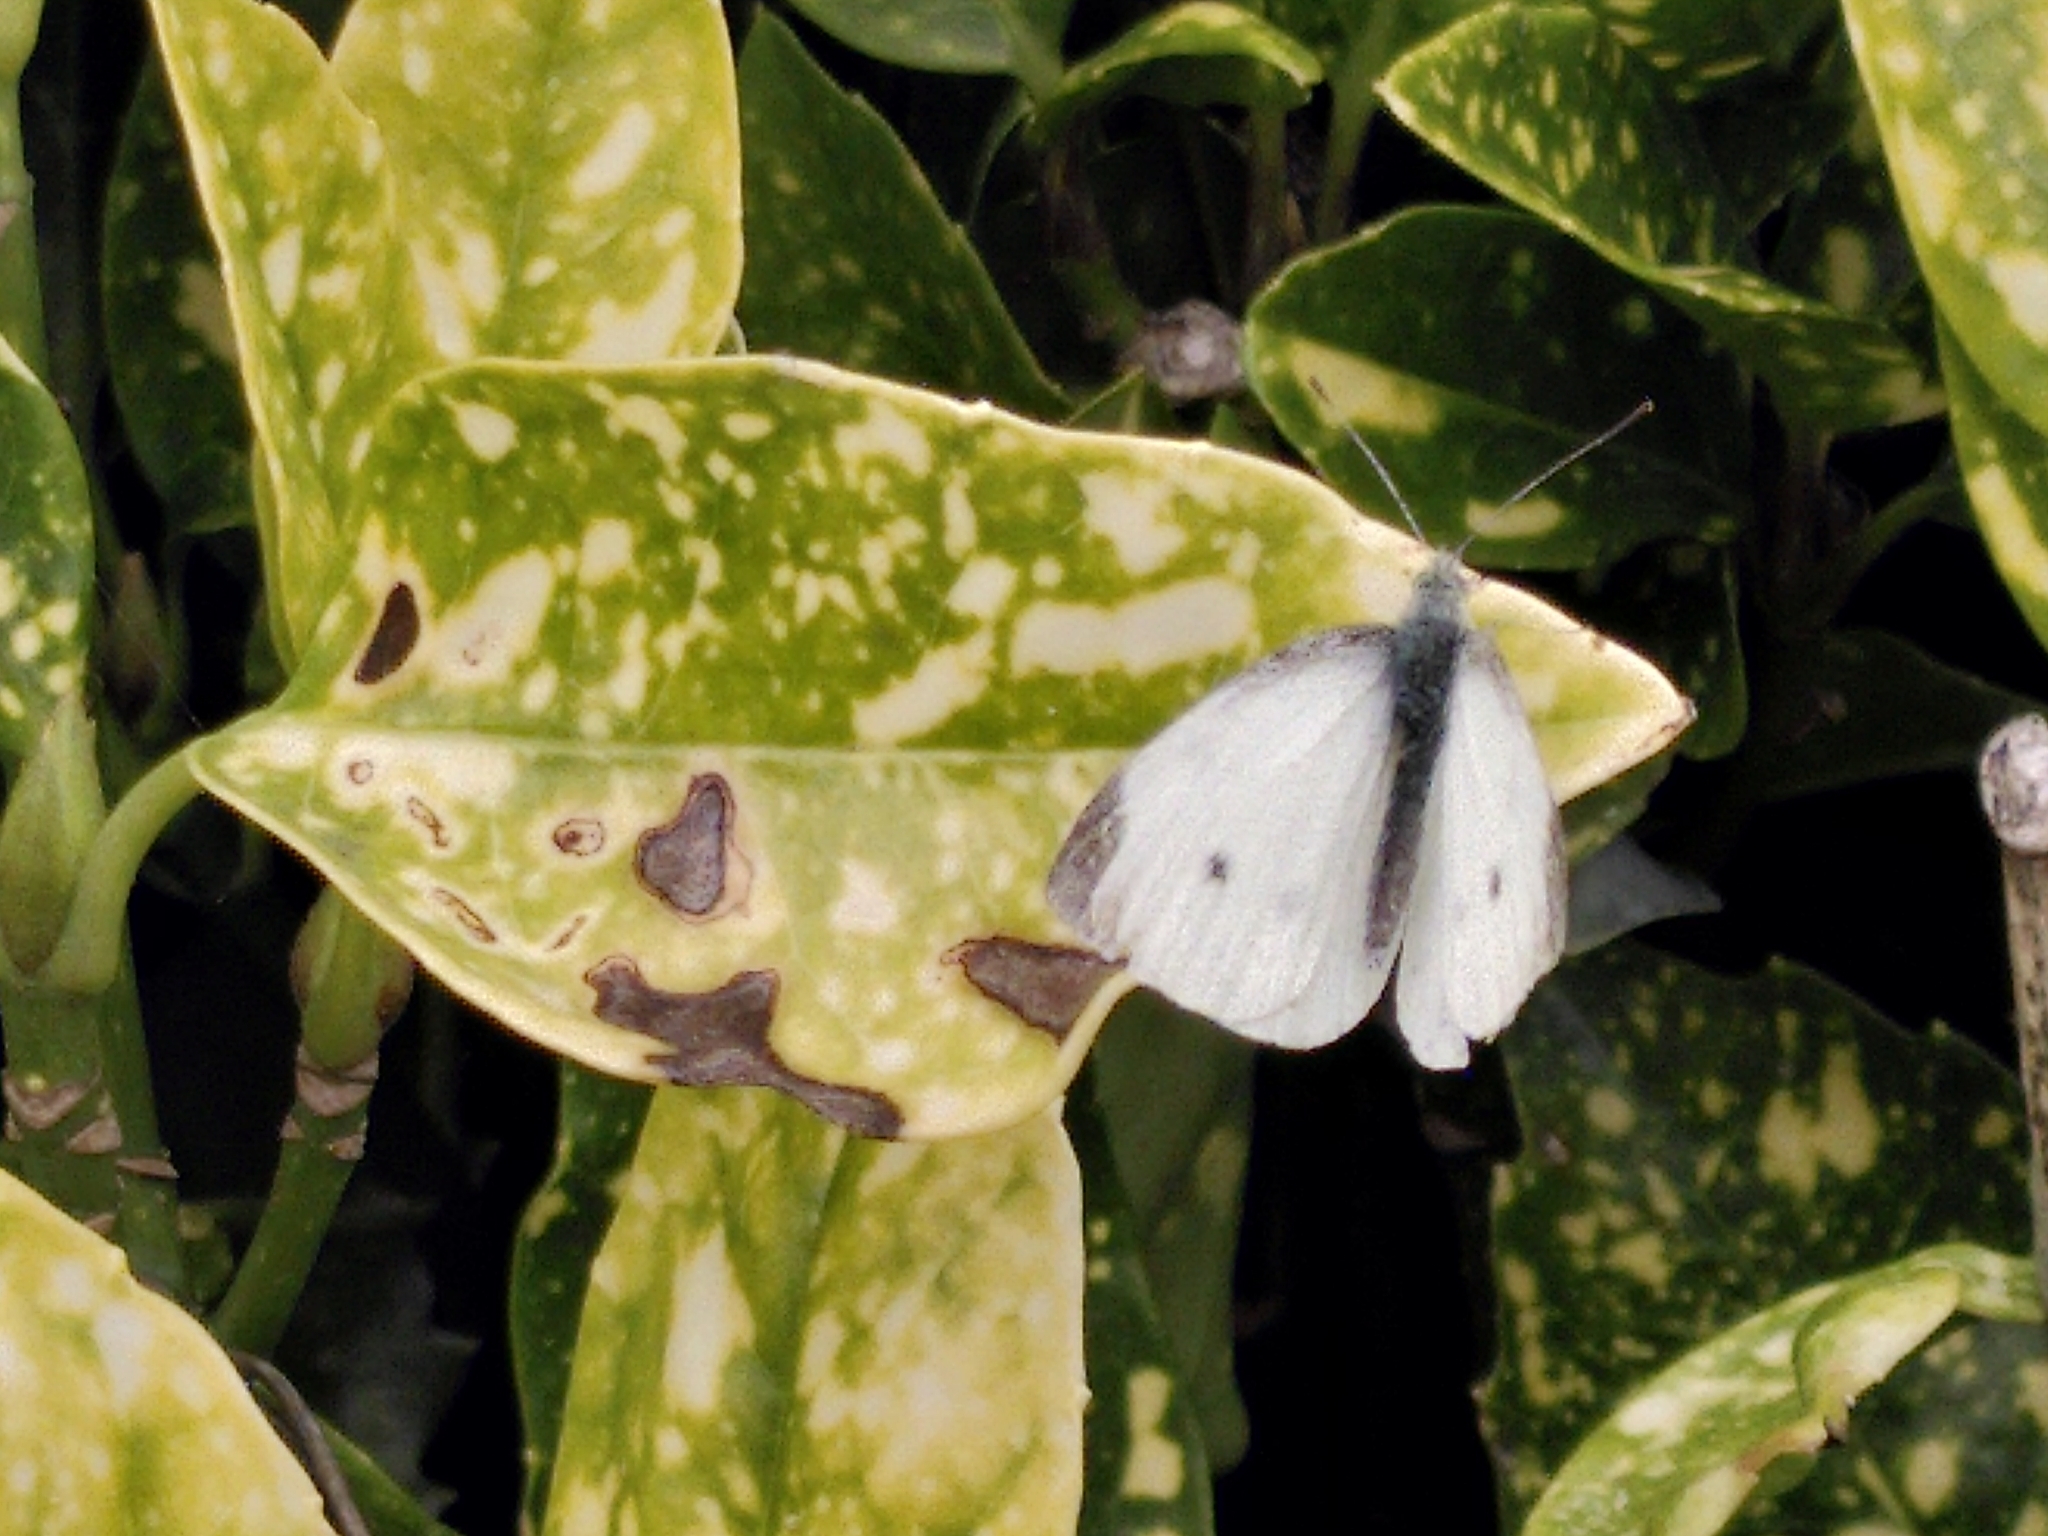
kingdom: Animalia
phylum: Arthropoda
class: Insecta
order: Lepidoptera
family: Pieridae
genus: Pieris
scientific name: Pieris rapae
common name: Small white
